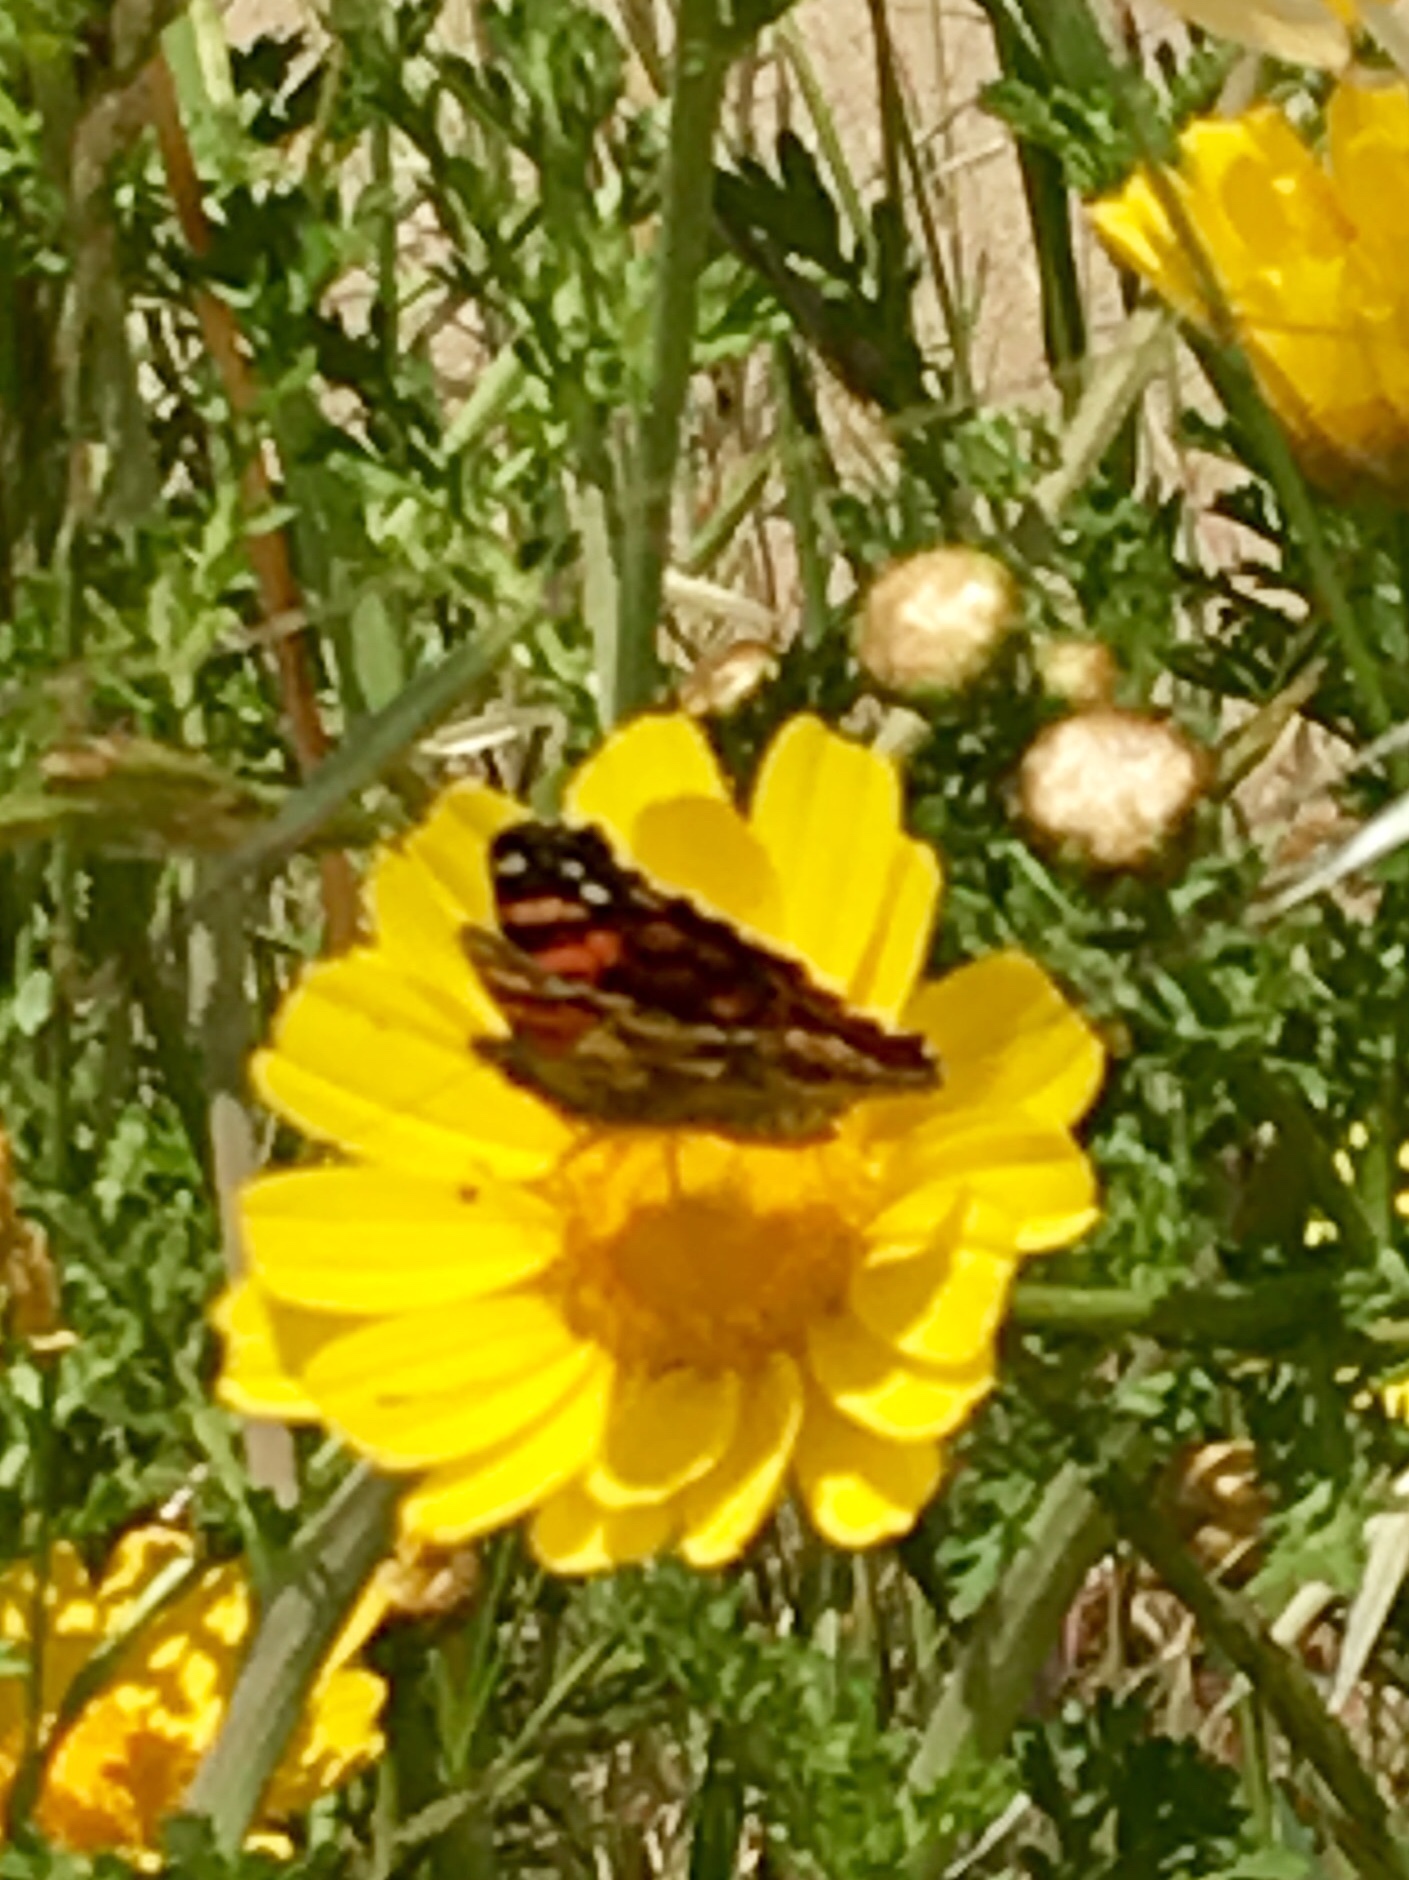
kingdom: Animalia
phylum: Arthropoda
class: Insecta
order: Lepidoptera
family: Nymphalidae
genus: Vanessa
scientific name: Vanessa annabella
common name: West coast lady
